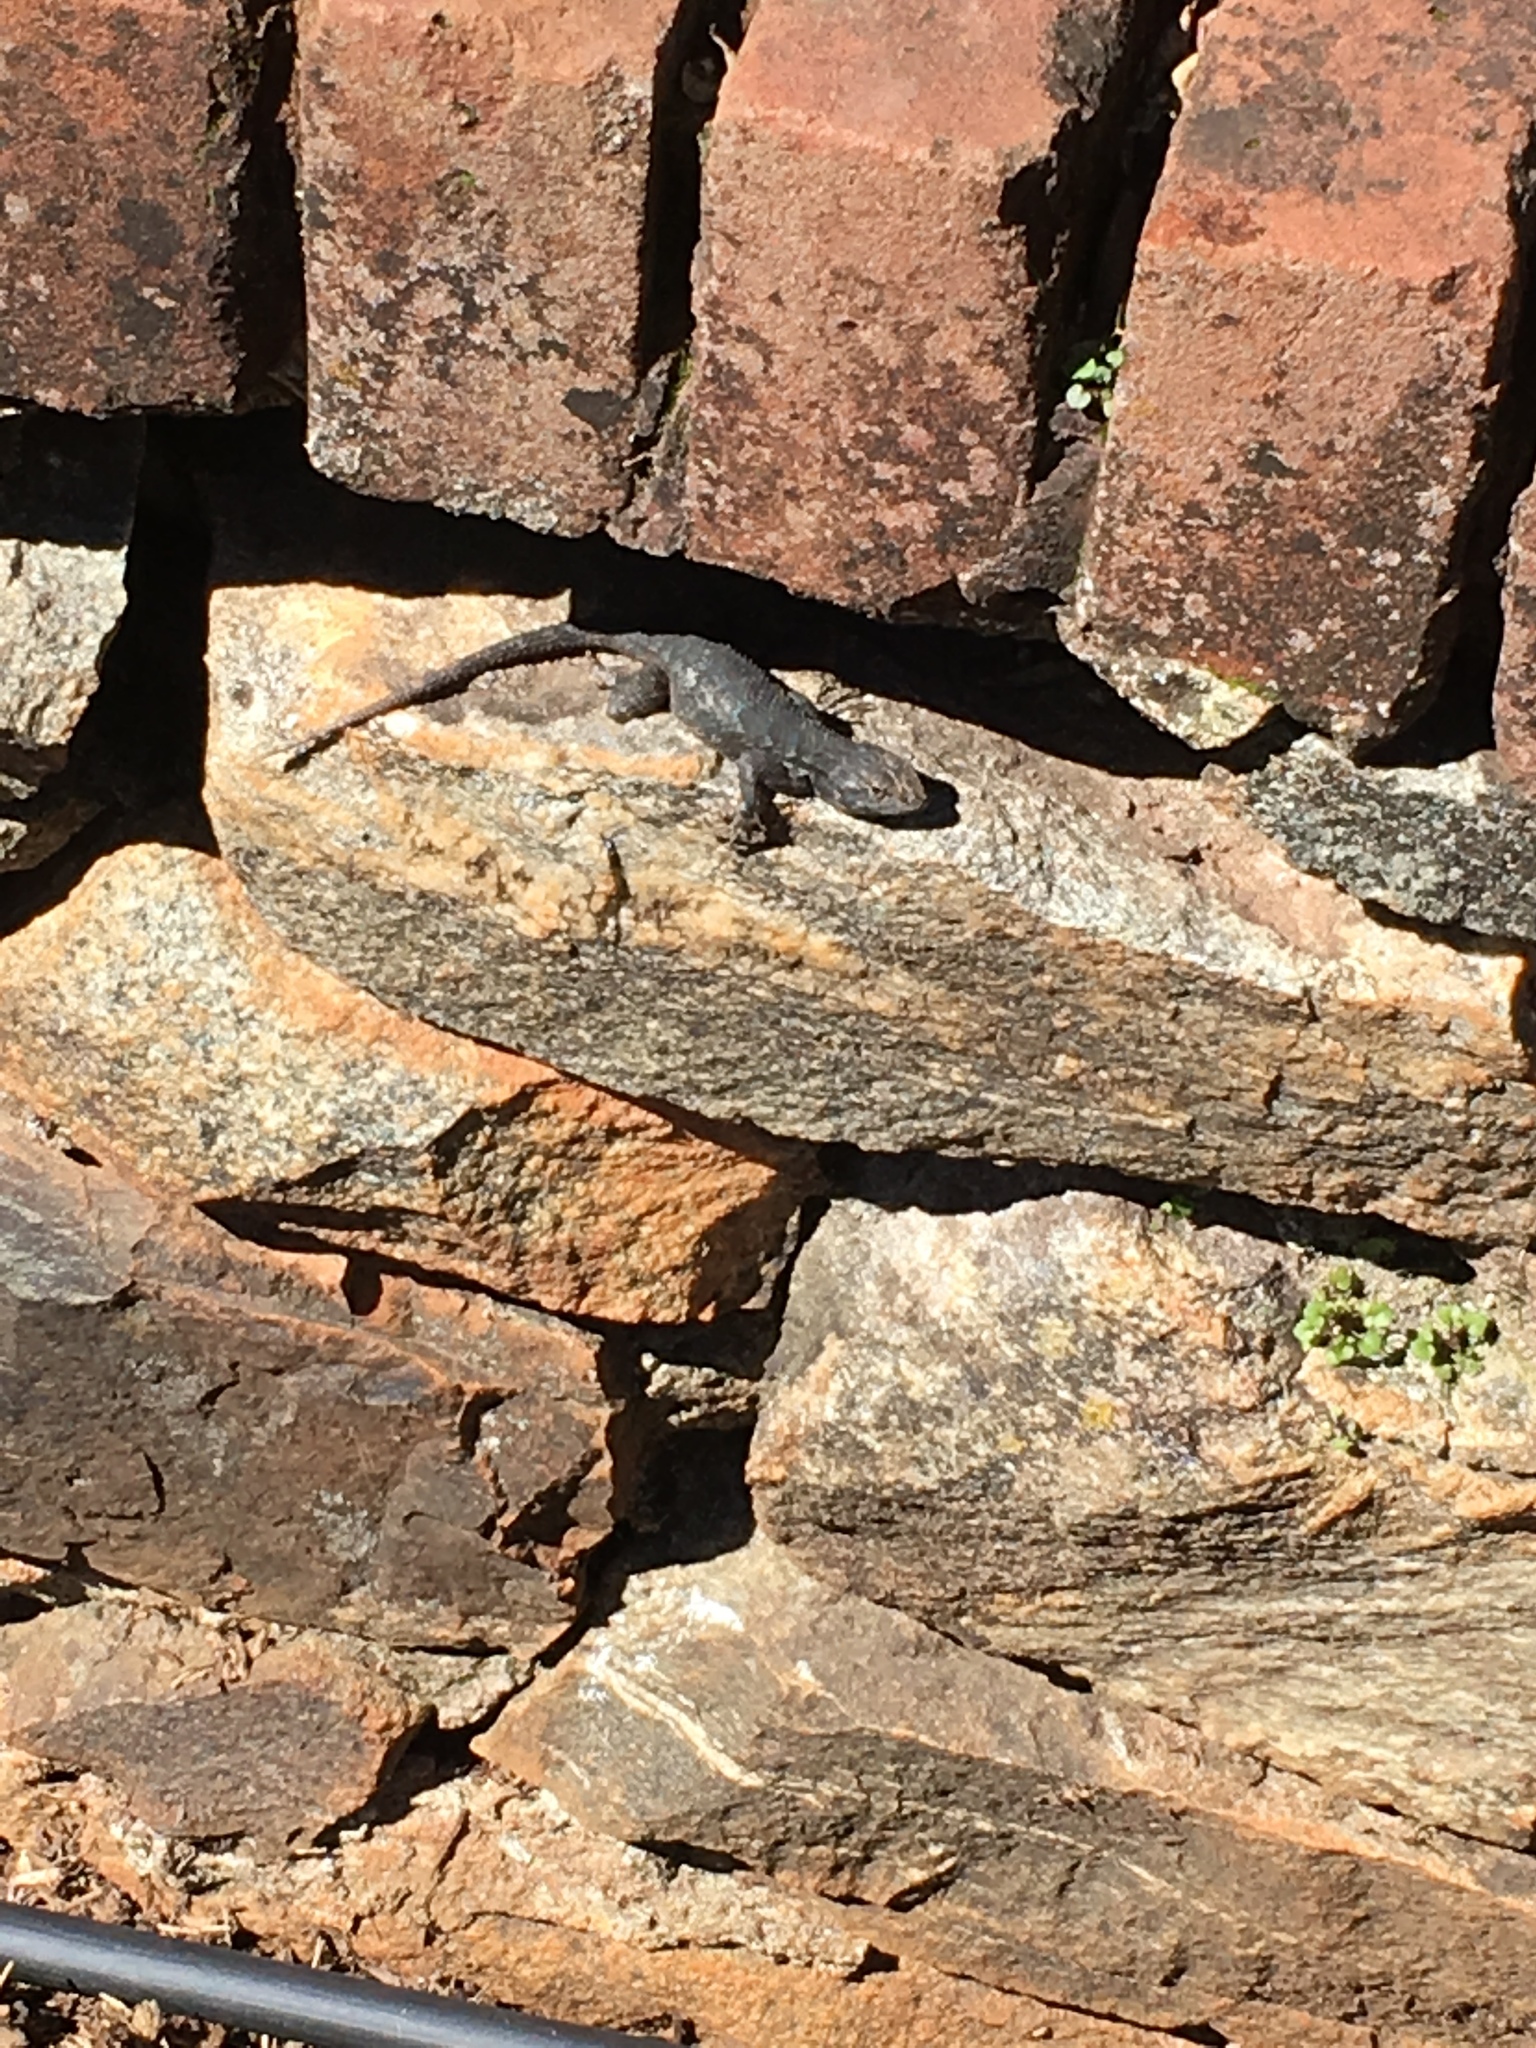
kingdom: Animalia
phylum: Chordata
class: Squamata
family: Phrynosomatidae
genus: Sceloporus
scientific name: Sceloporus occidentalis
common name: Western fence lizard
